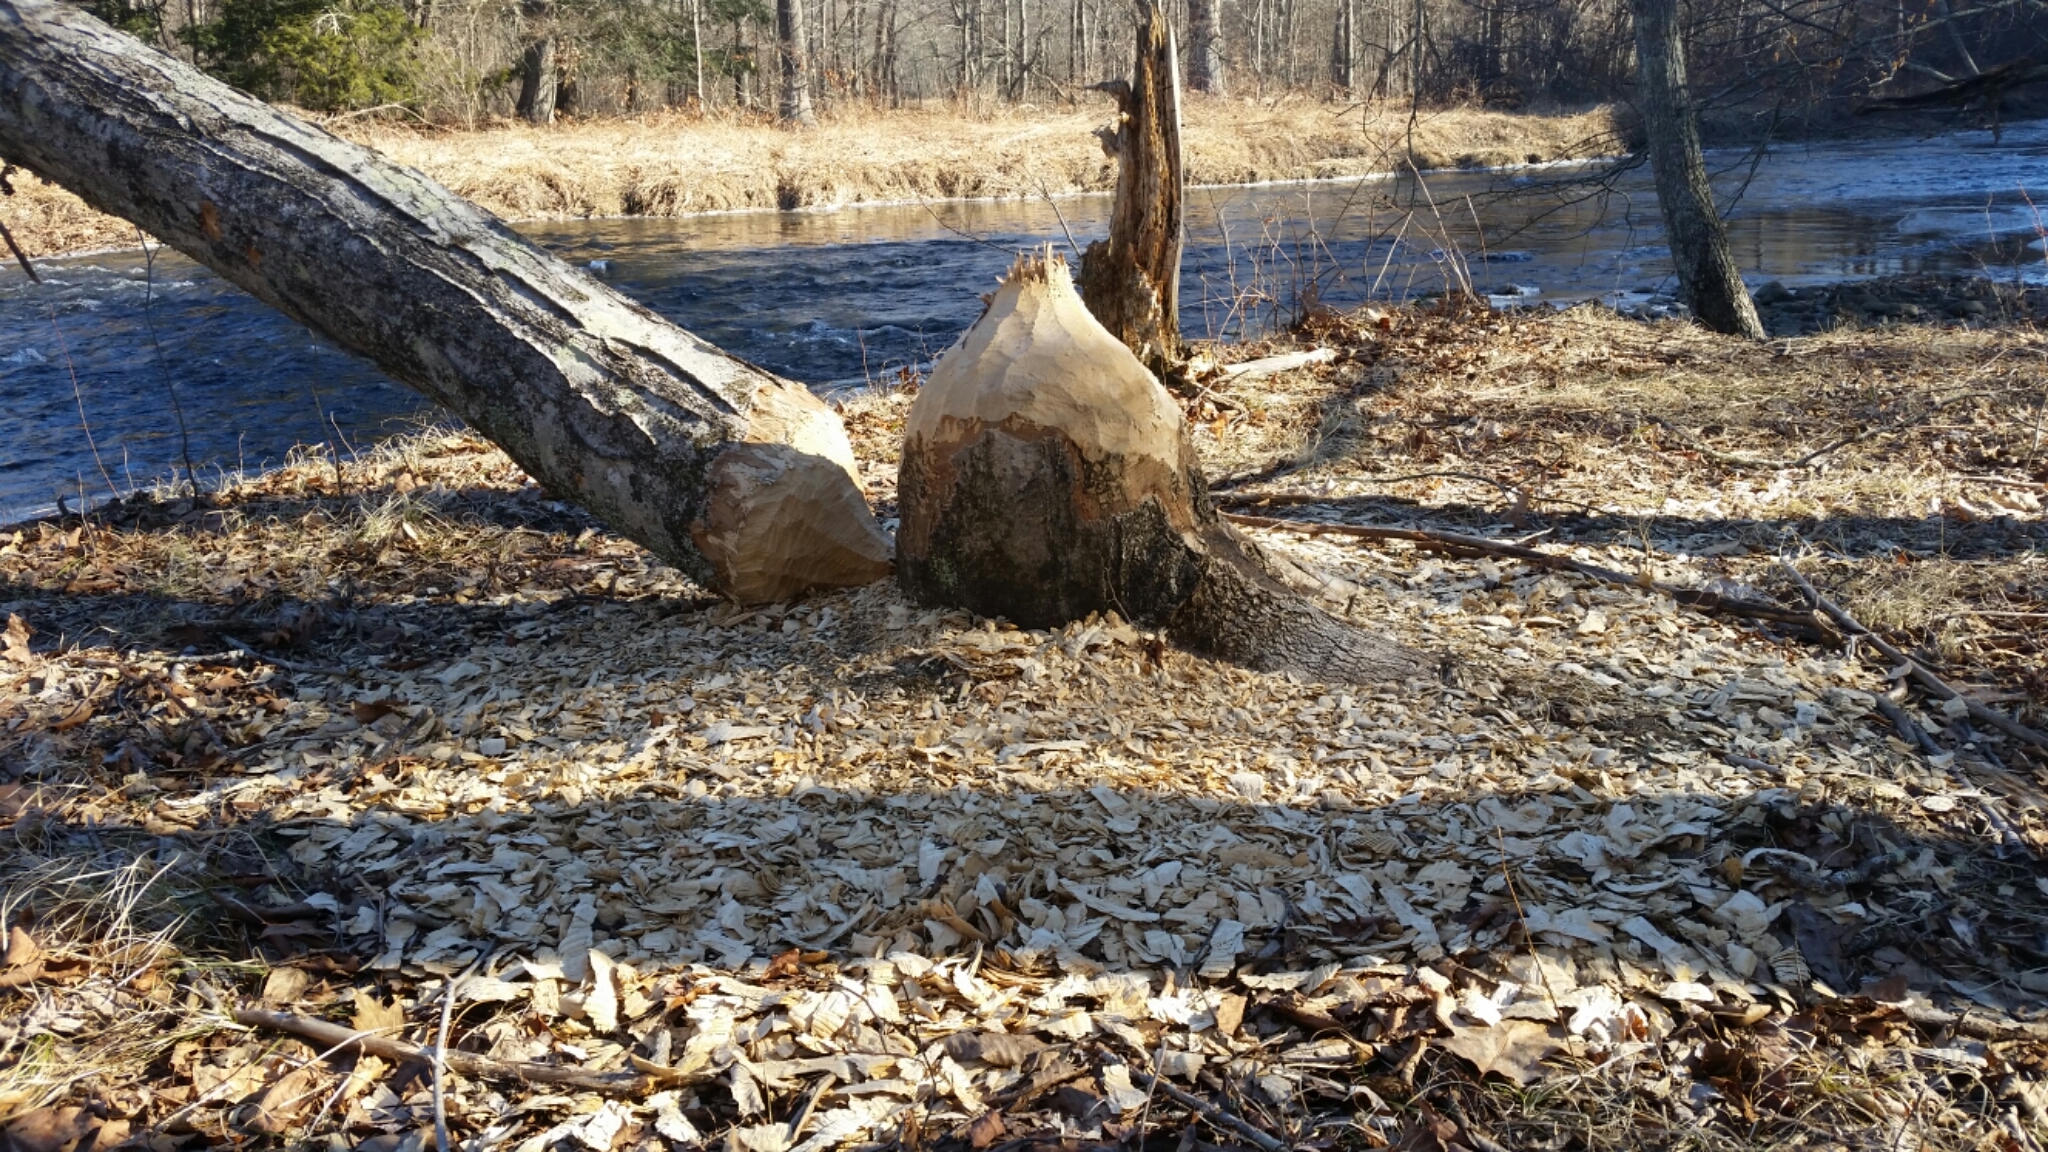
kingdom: Animalia
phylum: Chordata
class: Mammalia
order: Rodentia
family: Castoridae
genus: Castor
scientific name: Castor canadensis
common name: American beaver
